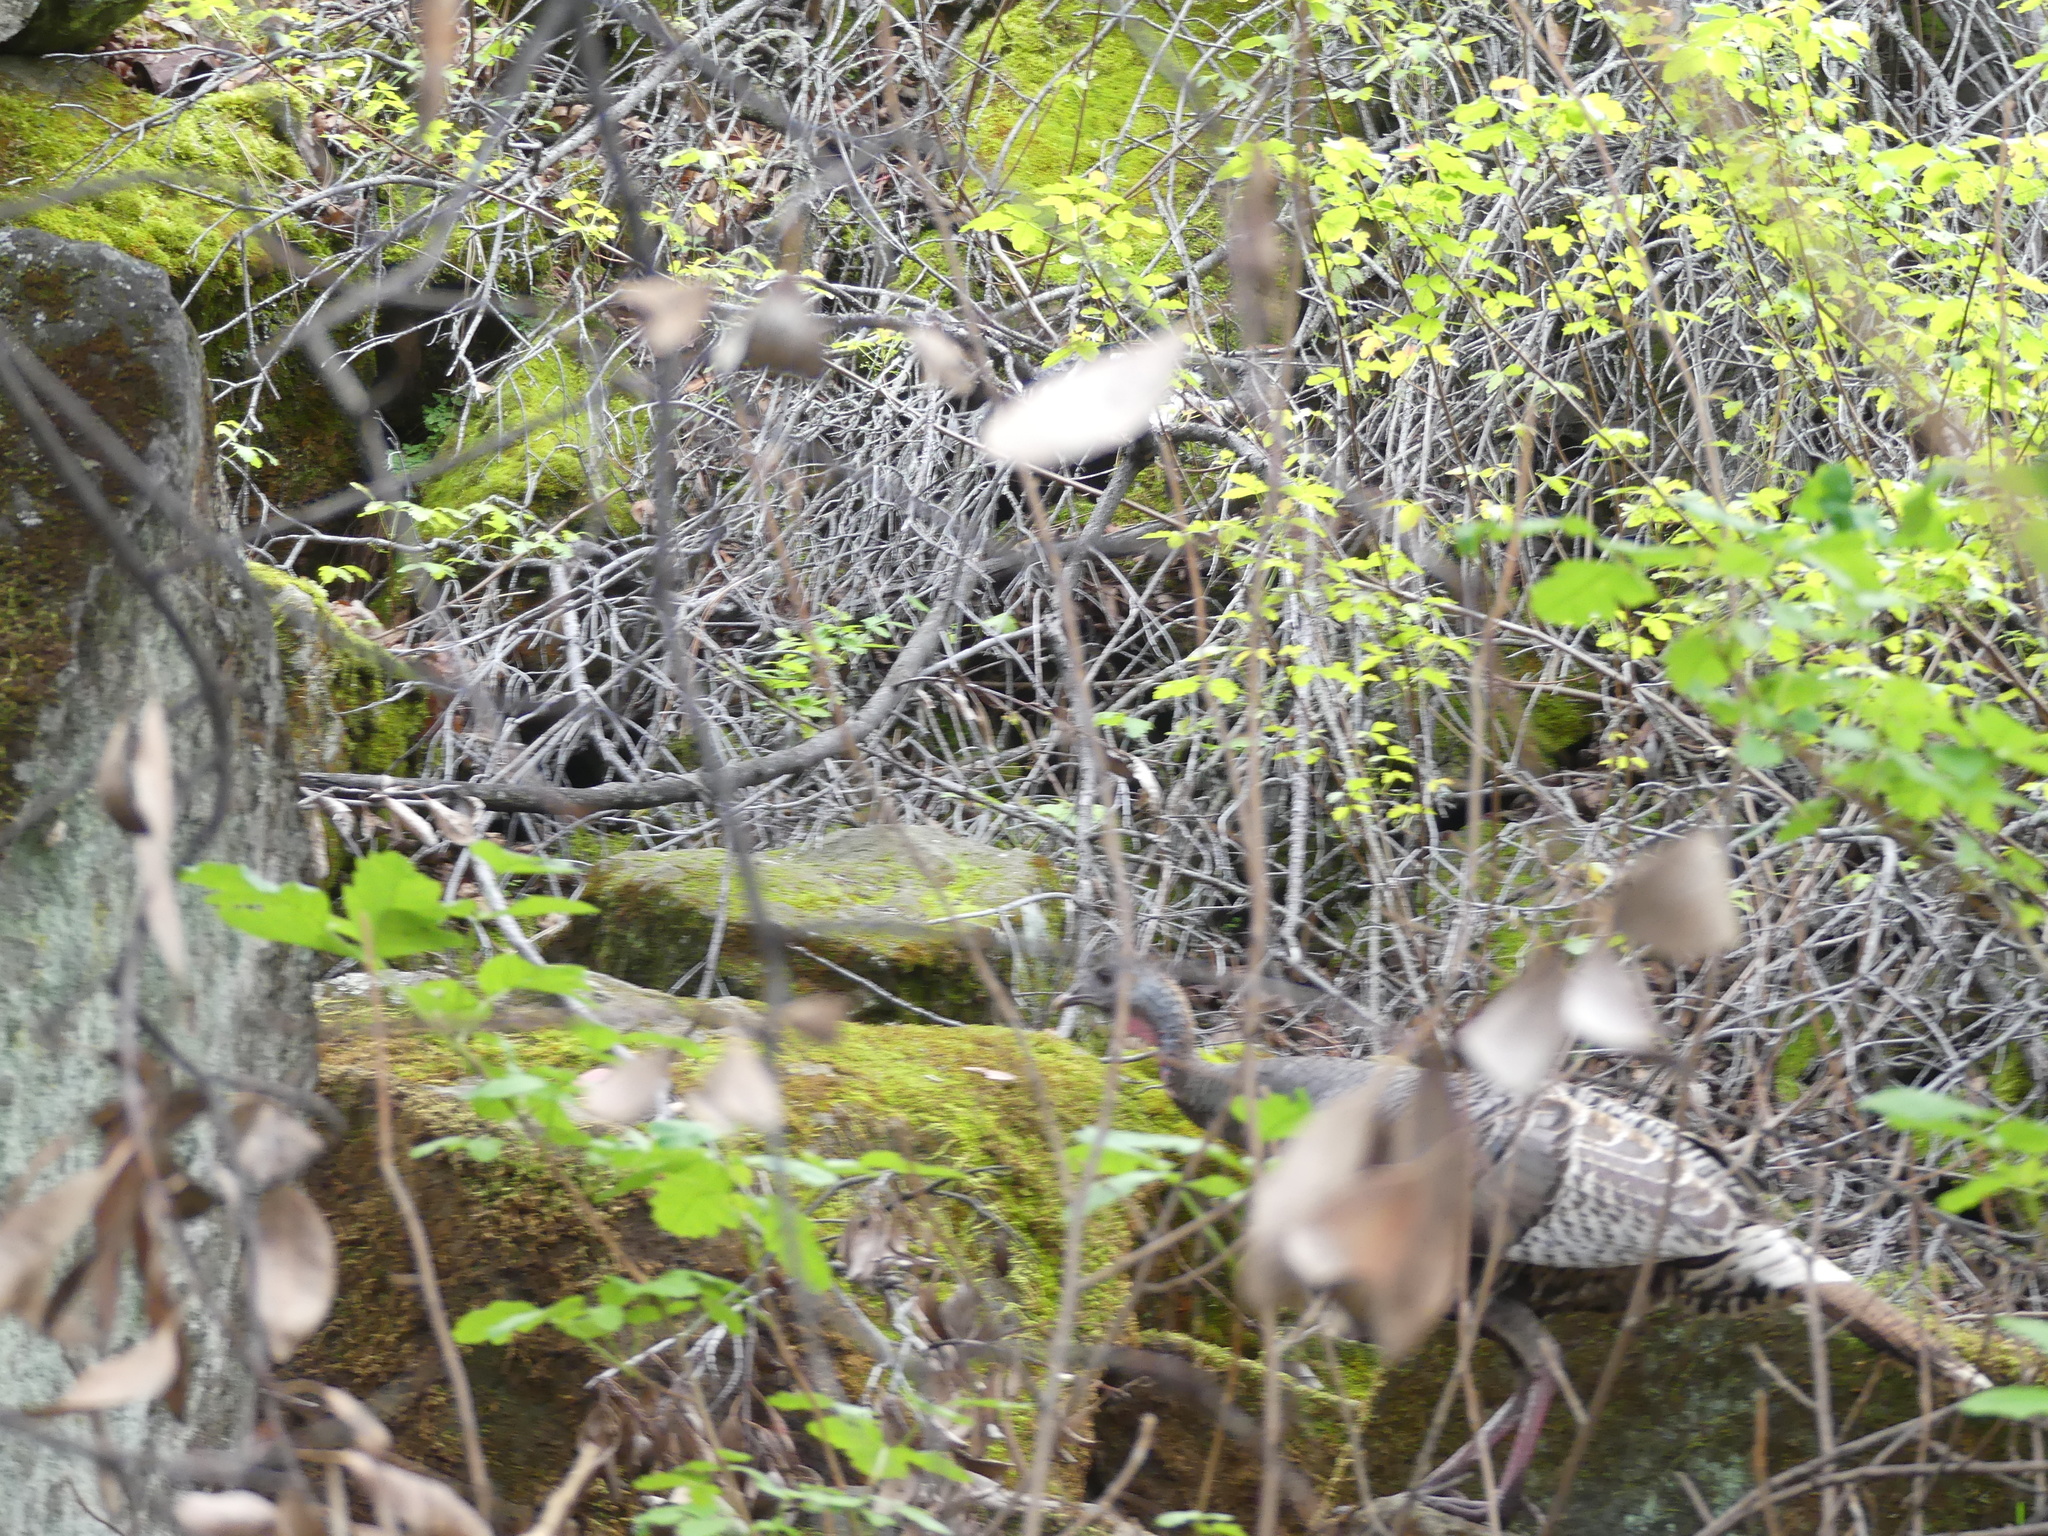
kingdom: Animalia
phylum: Chordata
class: Aves
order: Galliformes
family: Phasianidae
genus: Meleagris
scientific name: Meleagris gallopavo
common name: Wild turkey
